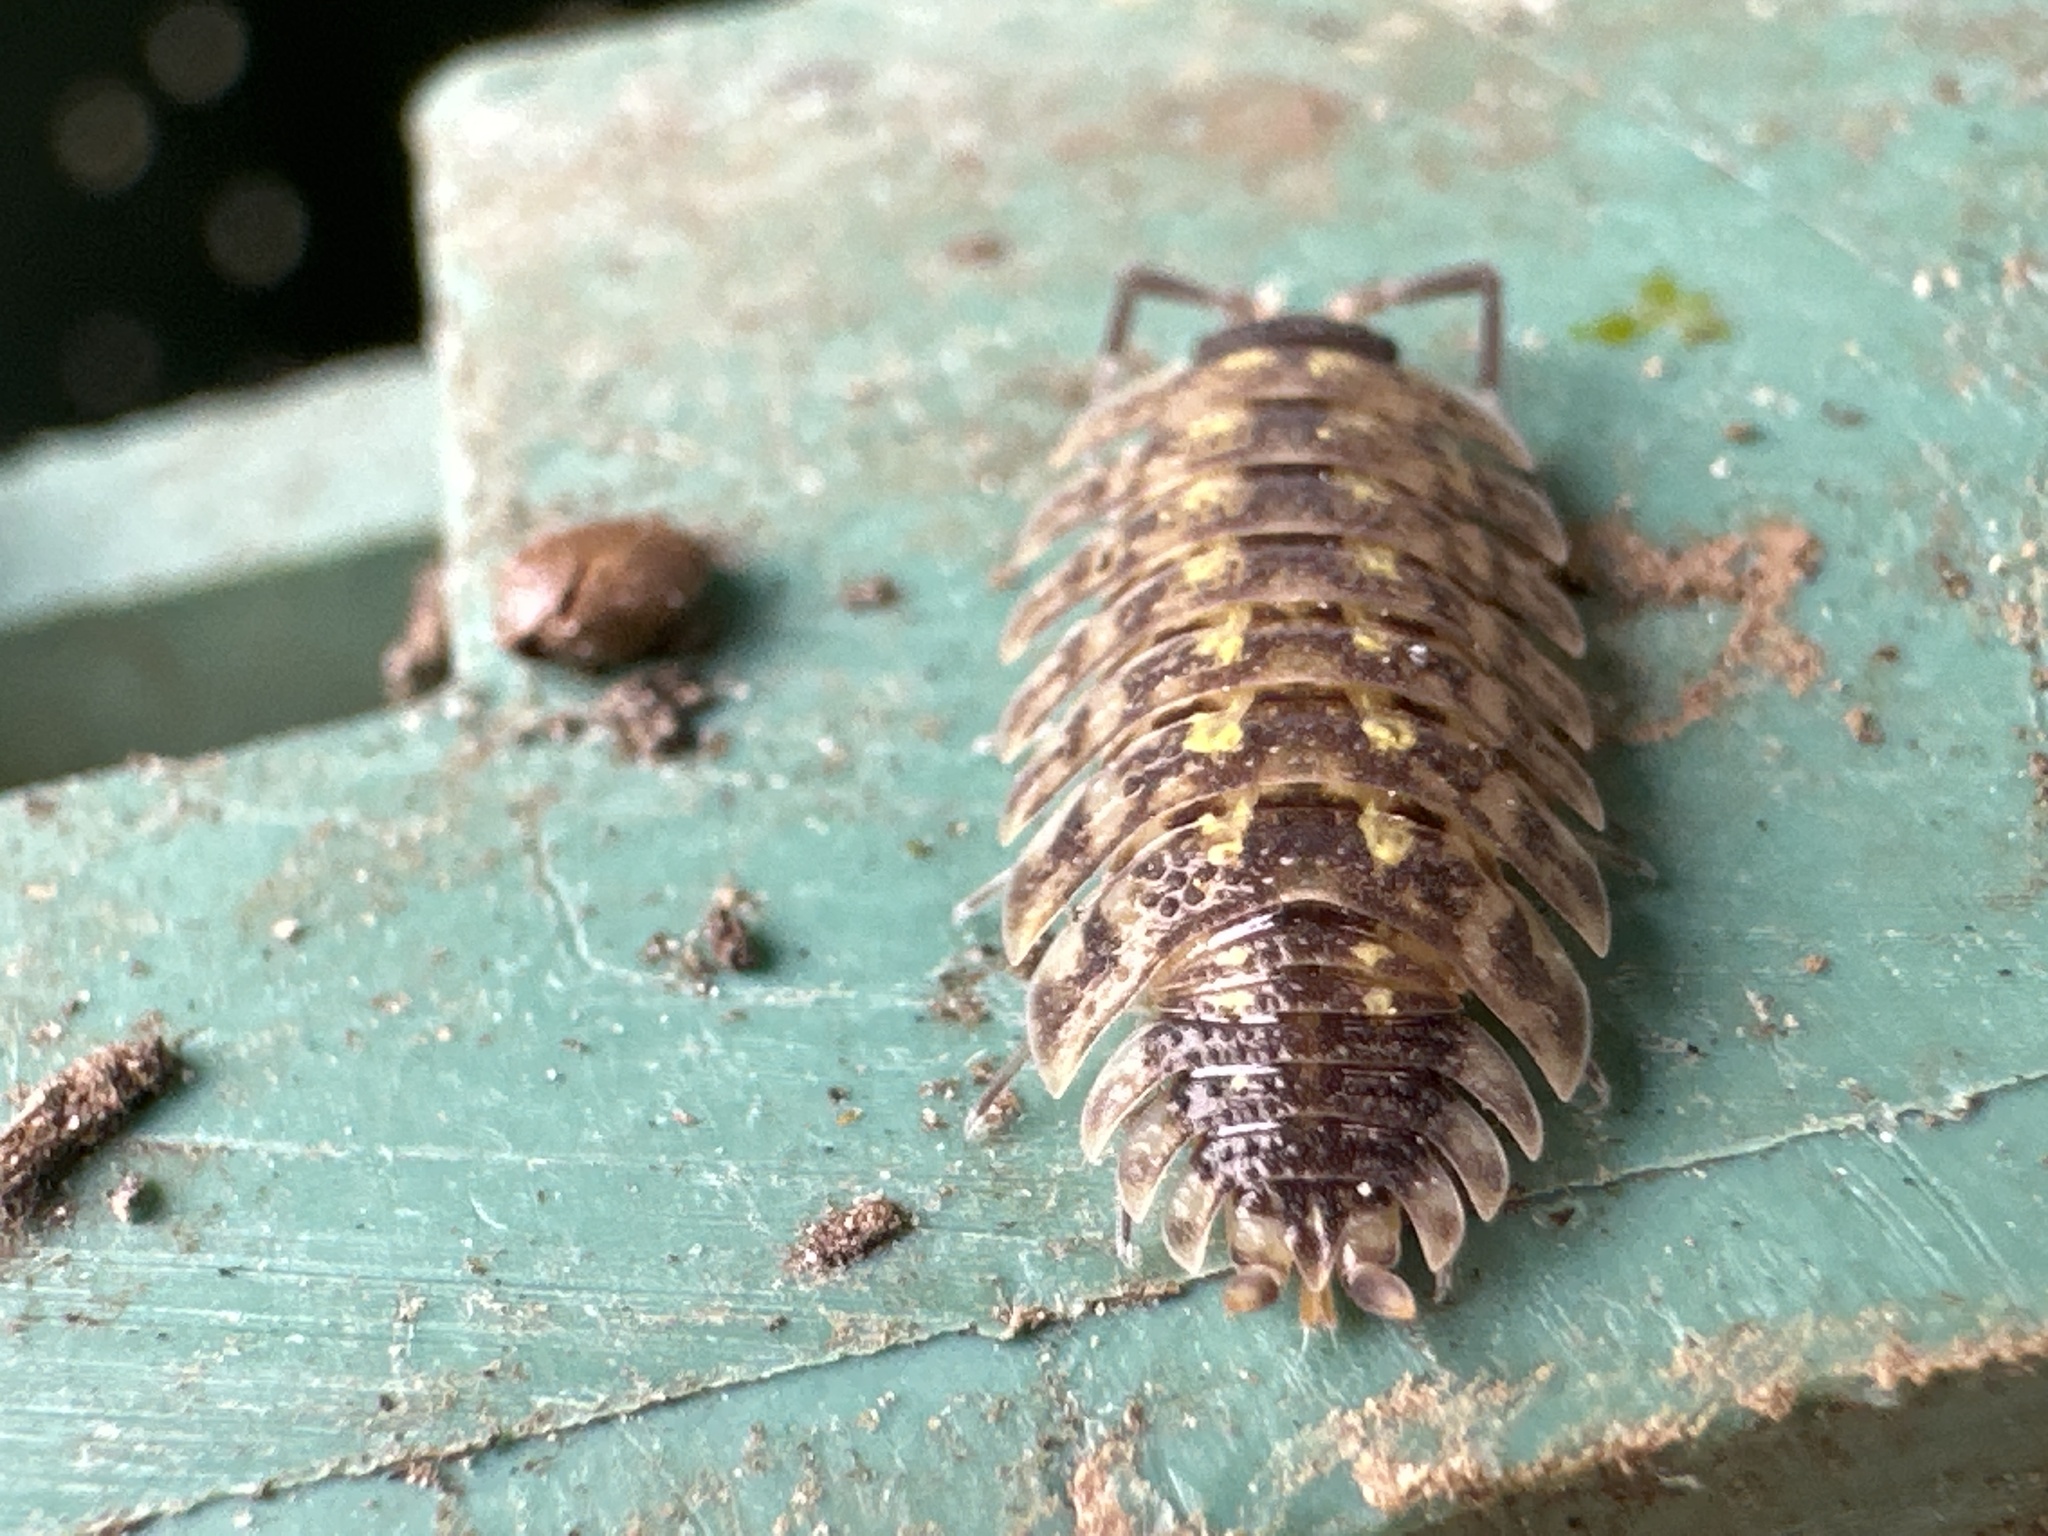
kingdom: Animalia
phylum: Arthropoda
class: Malacostraca
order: Isopoda
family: Porcellionidae
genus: Porcellio
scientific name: Porcellio spinicornis
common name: Painted woodlouse
